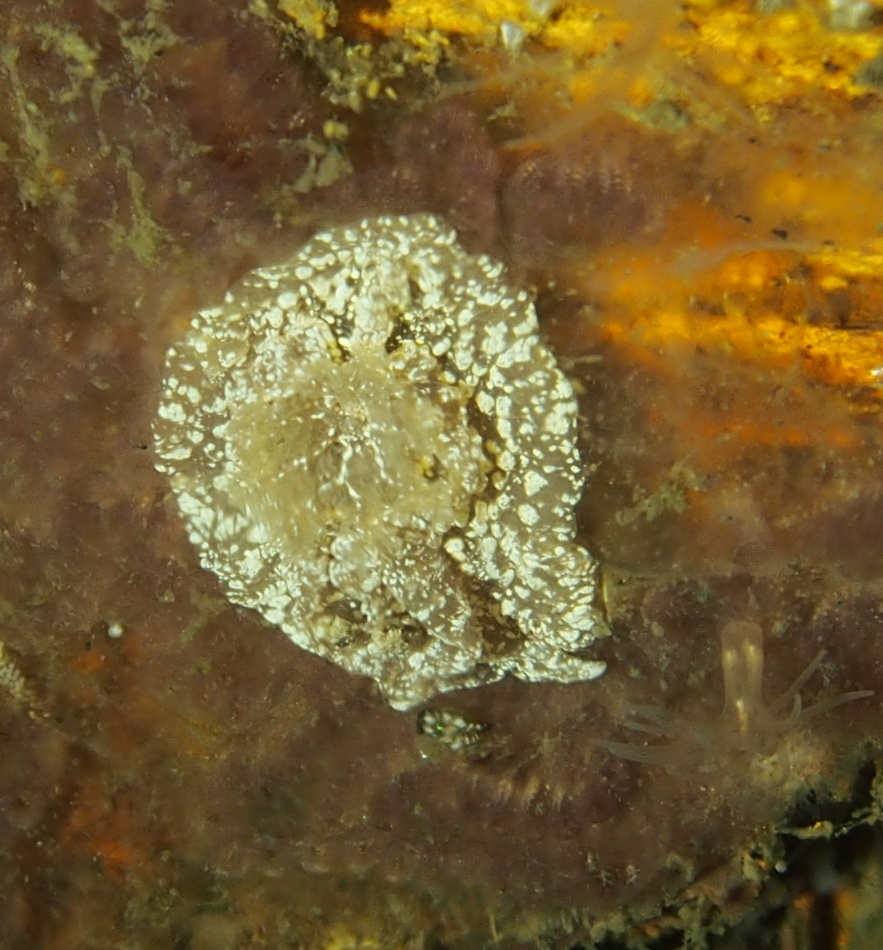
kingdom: Animalia
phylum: Mollusca
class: Gastropoda
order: Nudibranchia
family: Goniodorididae
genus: Pelagella
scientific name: Pelagella castanea
